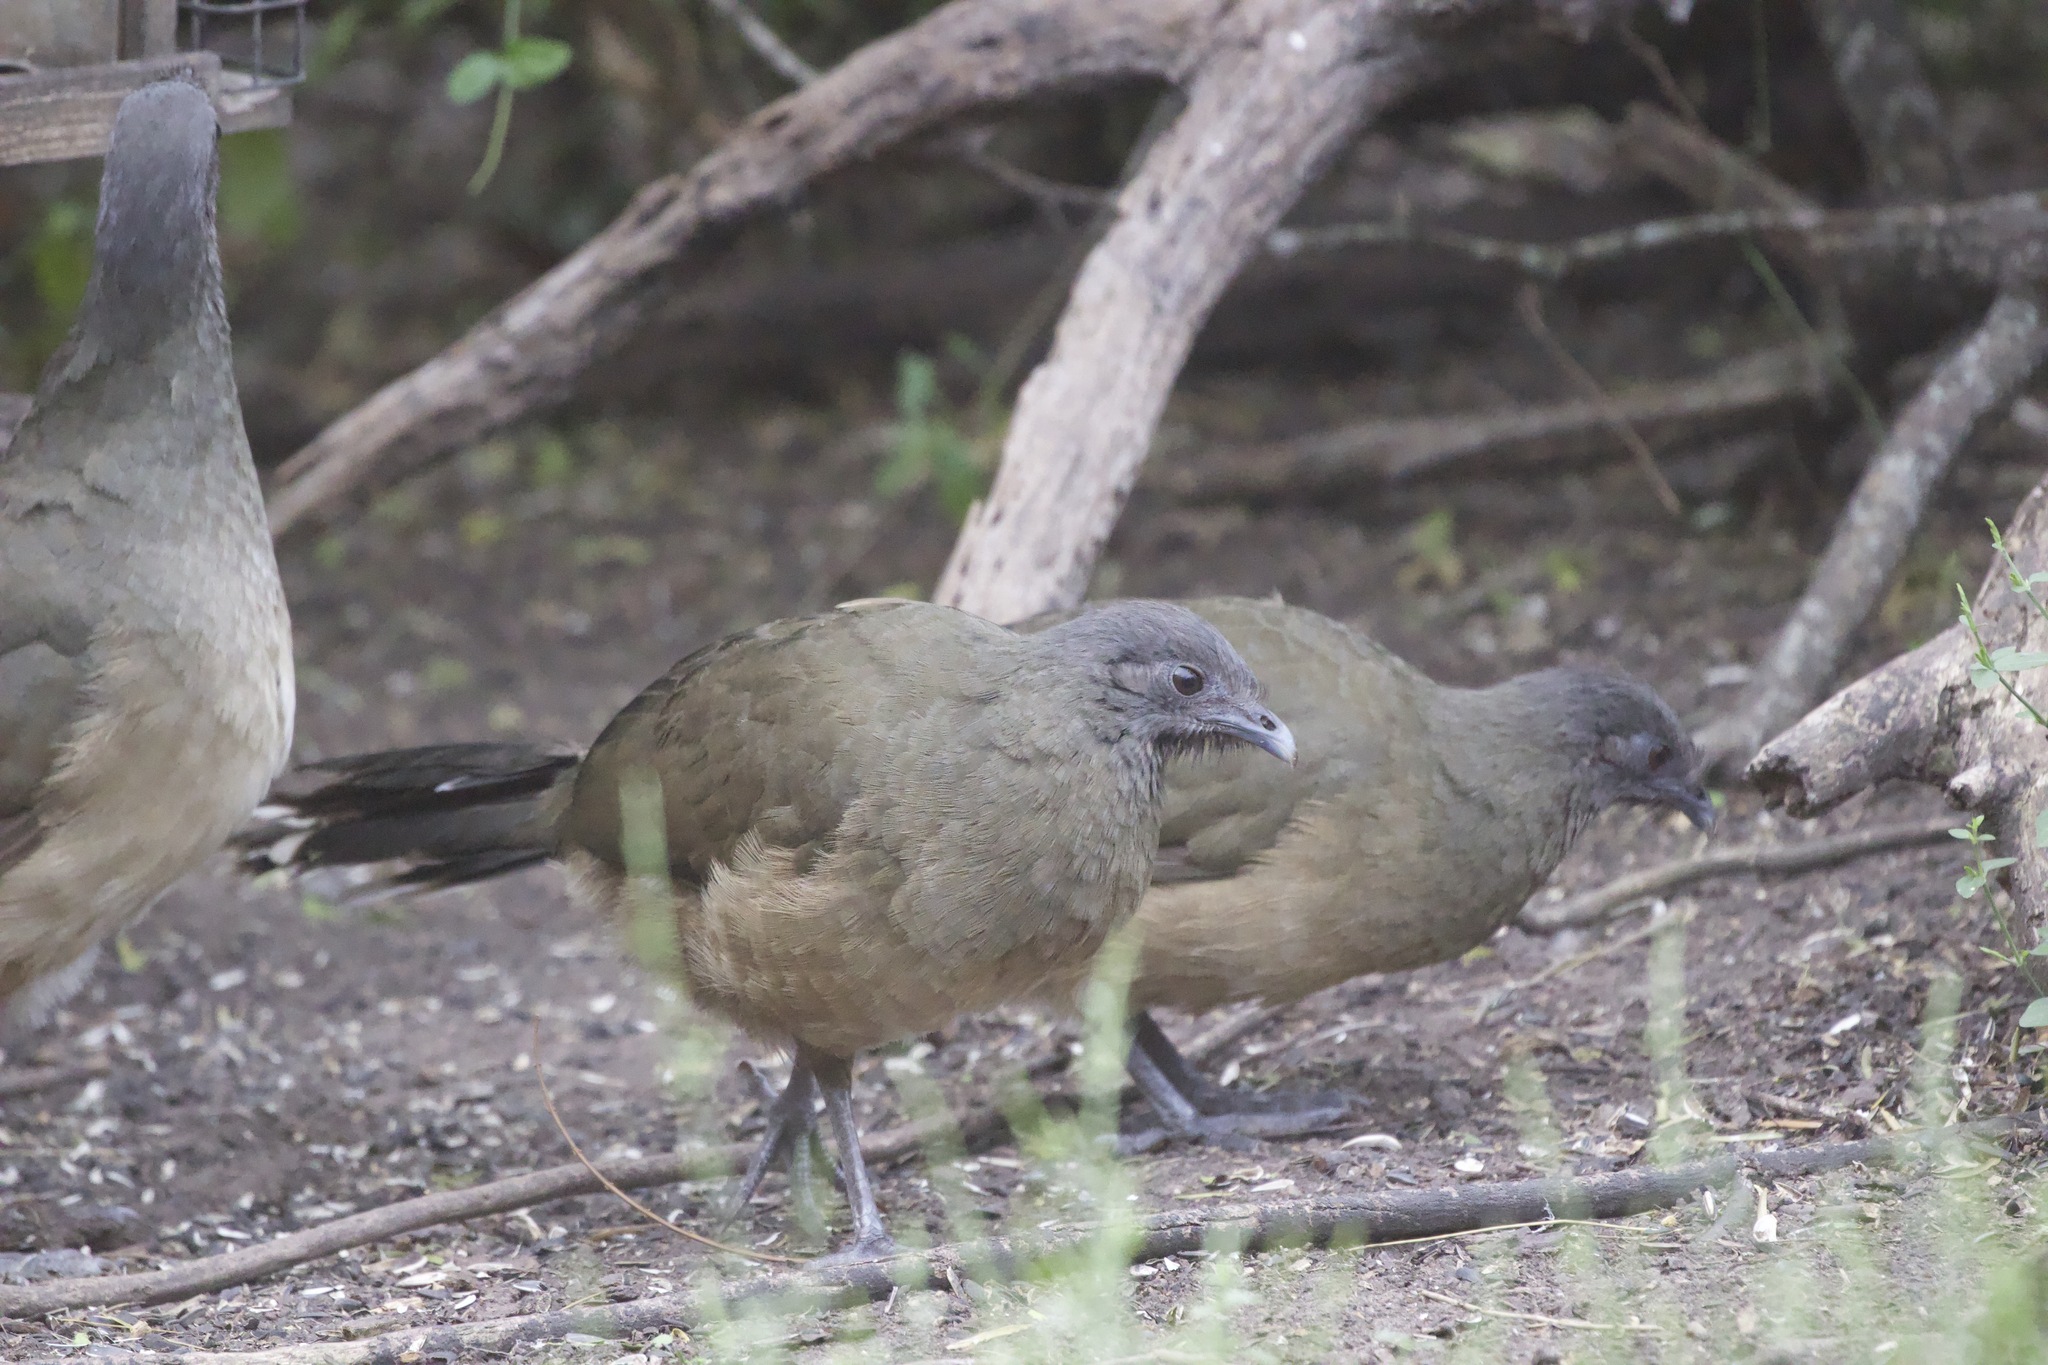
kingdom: Animalia
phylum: Chordata
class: Aves
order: Galliformes
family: Cracidae
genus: Ortalis
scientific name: Ortalis vetula
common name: Plain chachalaca
